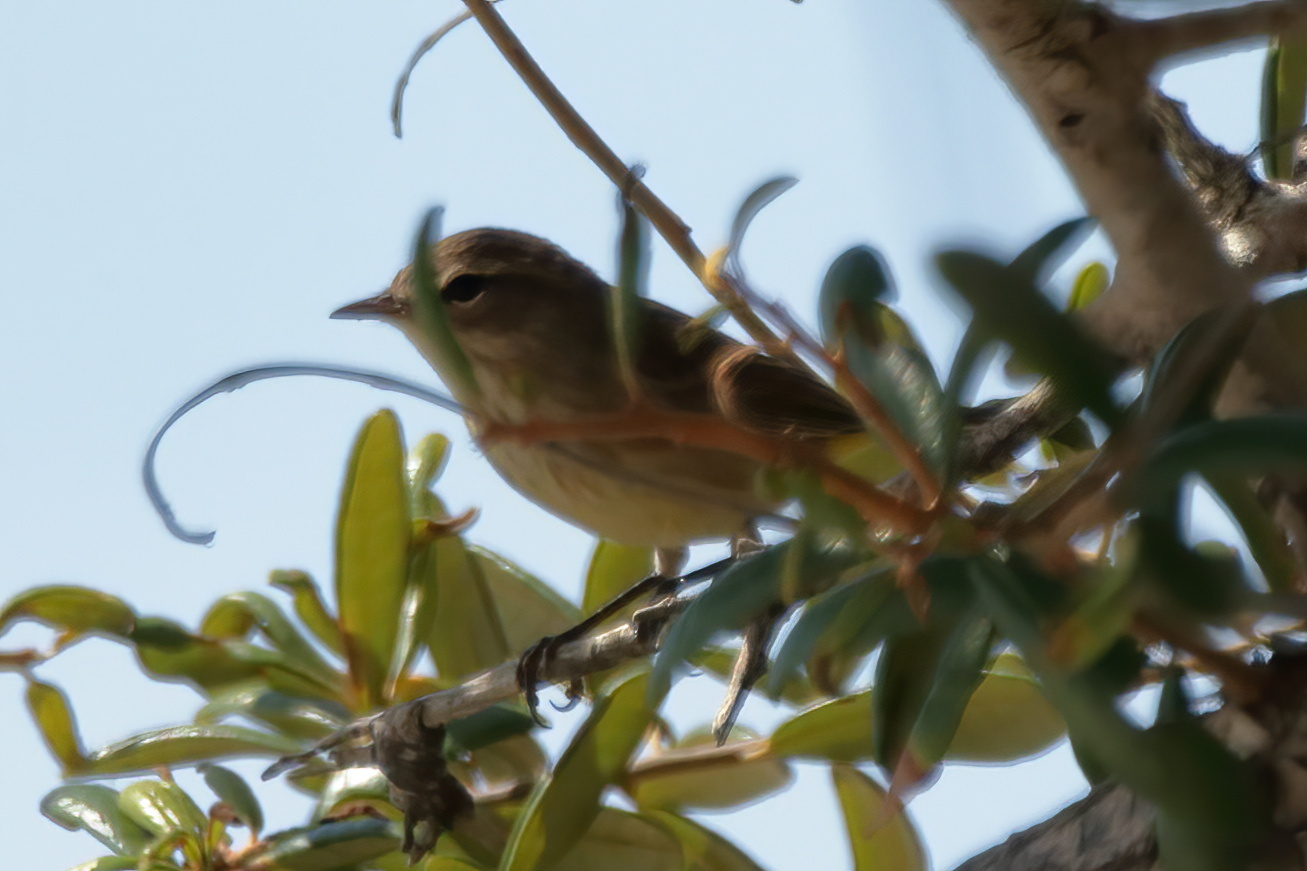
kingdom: Animalia
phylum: Chordata
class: Aves
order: Passeriformes
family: Parulidae
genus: Setophaga
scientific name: Setophaga palmarum
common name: Palm warbler
